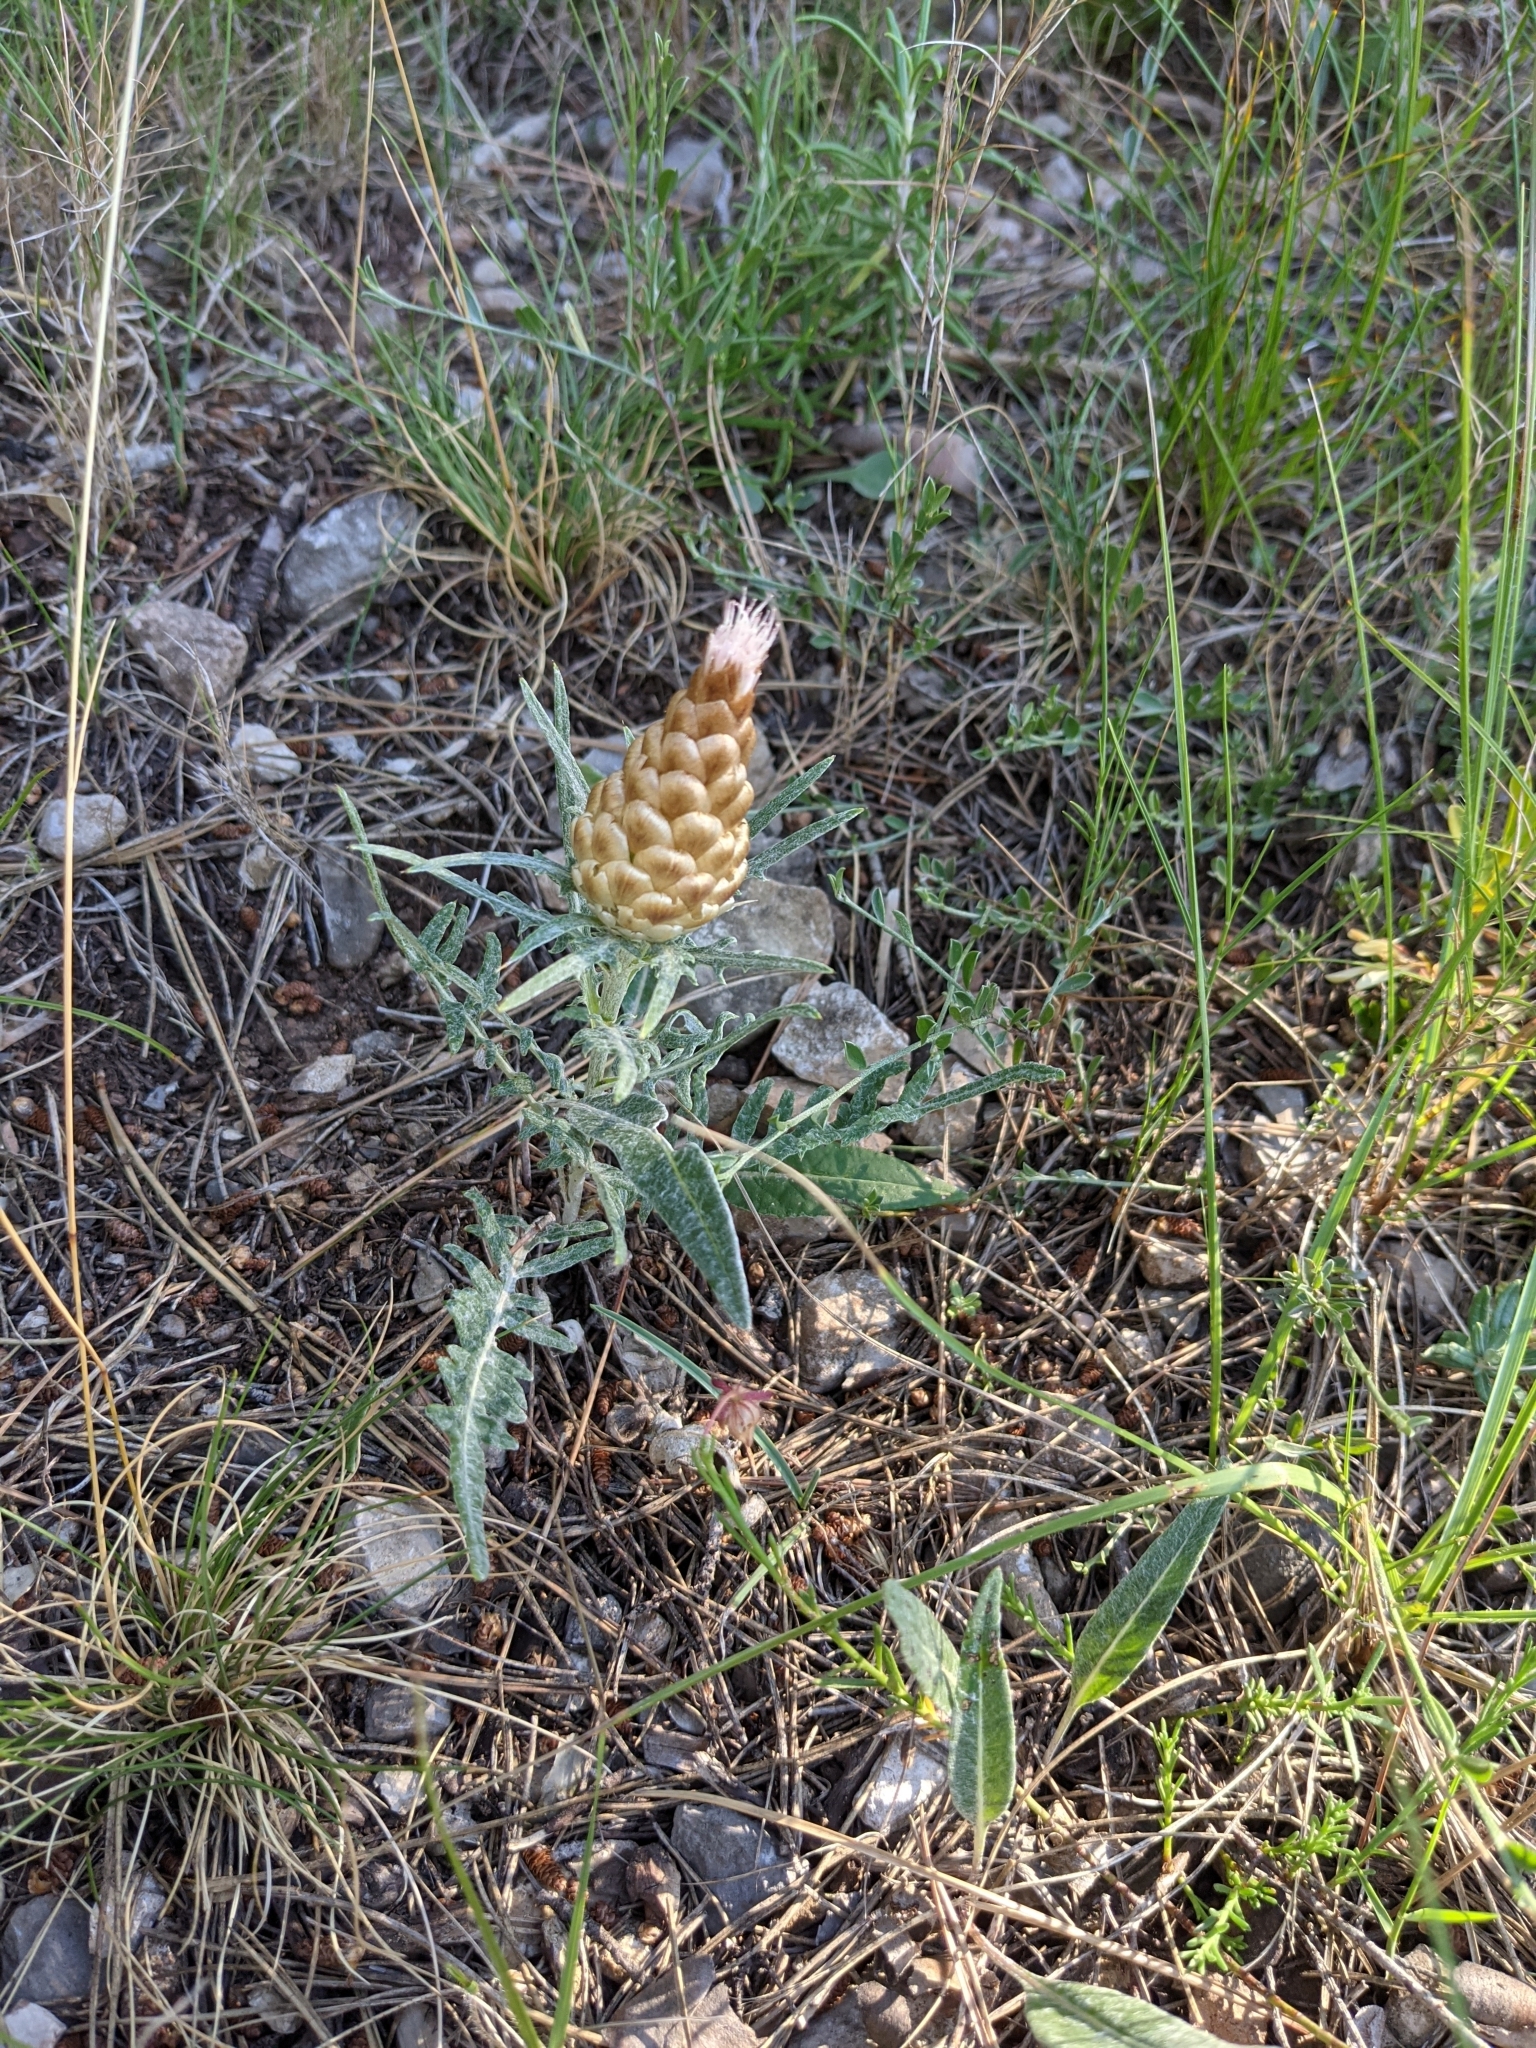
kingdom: Plantae
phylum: Tracheophyta
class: Magnoliopsida
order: Asterales
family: Asteraceae
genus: Leuzea
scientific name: Leuzea conifera
